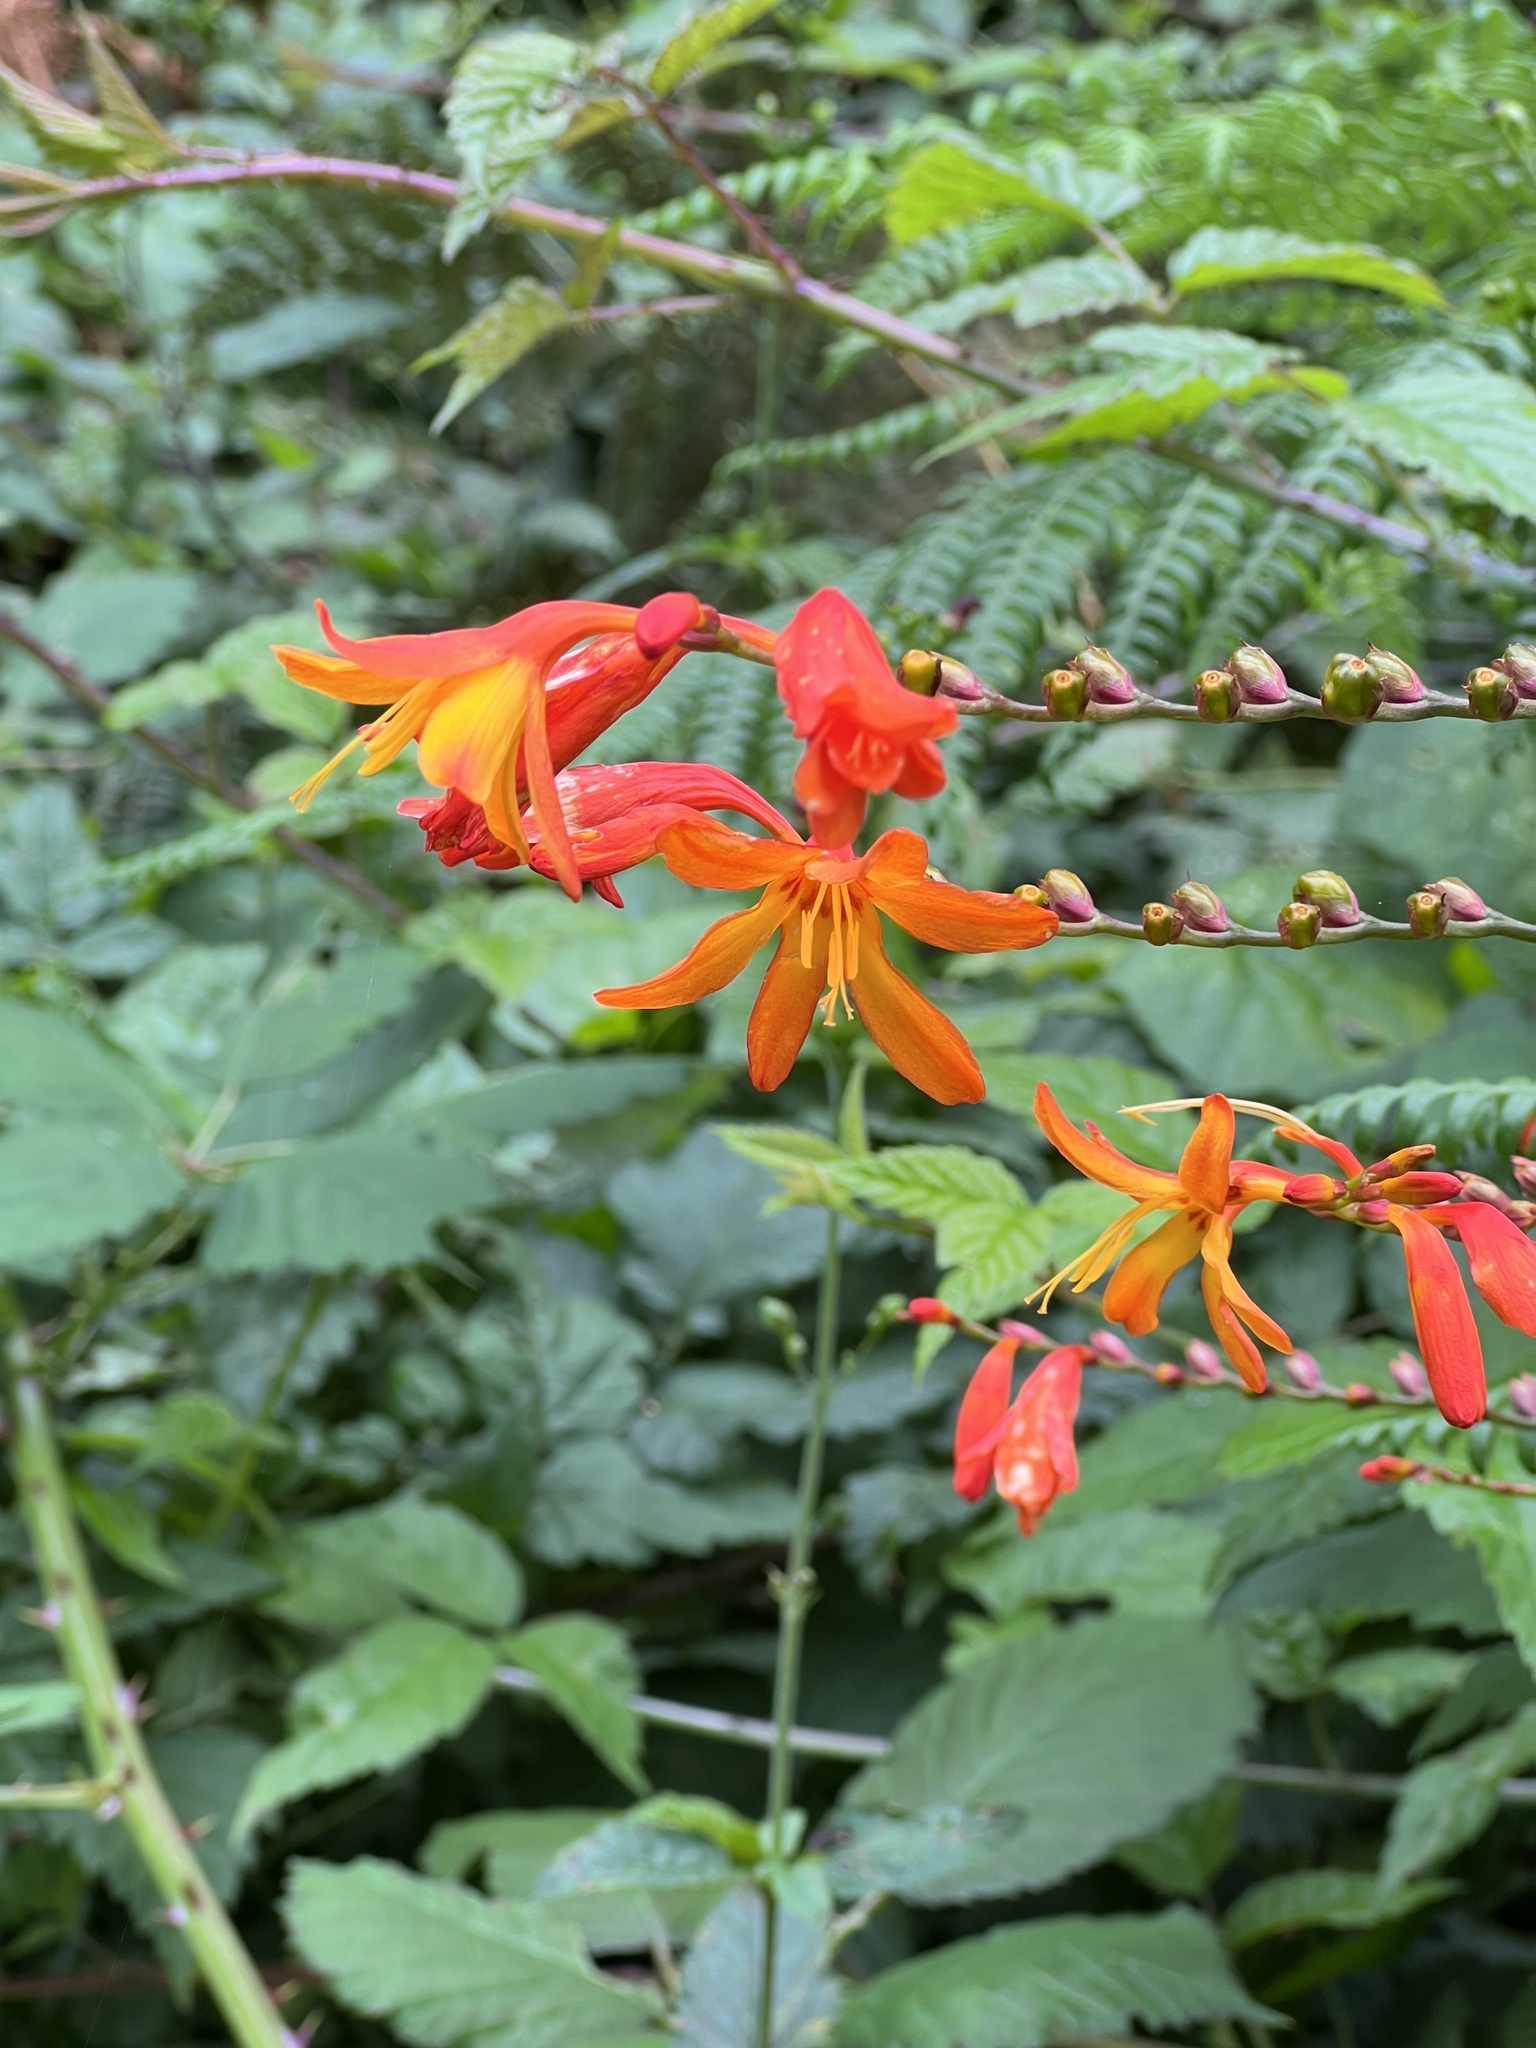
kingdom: Plantae
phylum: Tracheophyta
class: Liliopsida
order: Asparagales
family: Iridaceae
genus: Crocosmia
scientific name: Crocosmia crocosmiiflora
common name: Montbretia
